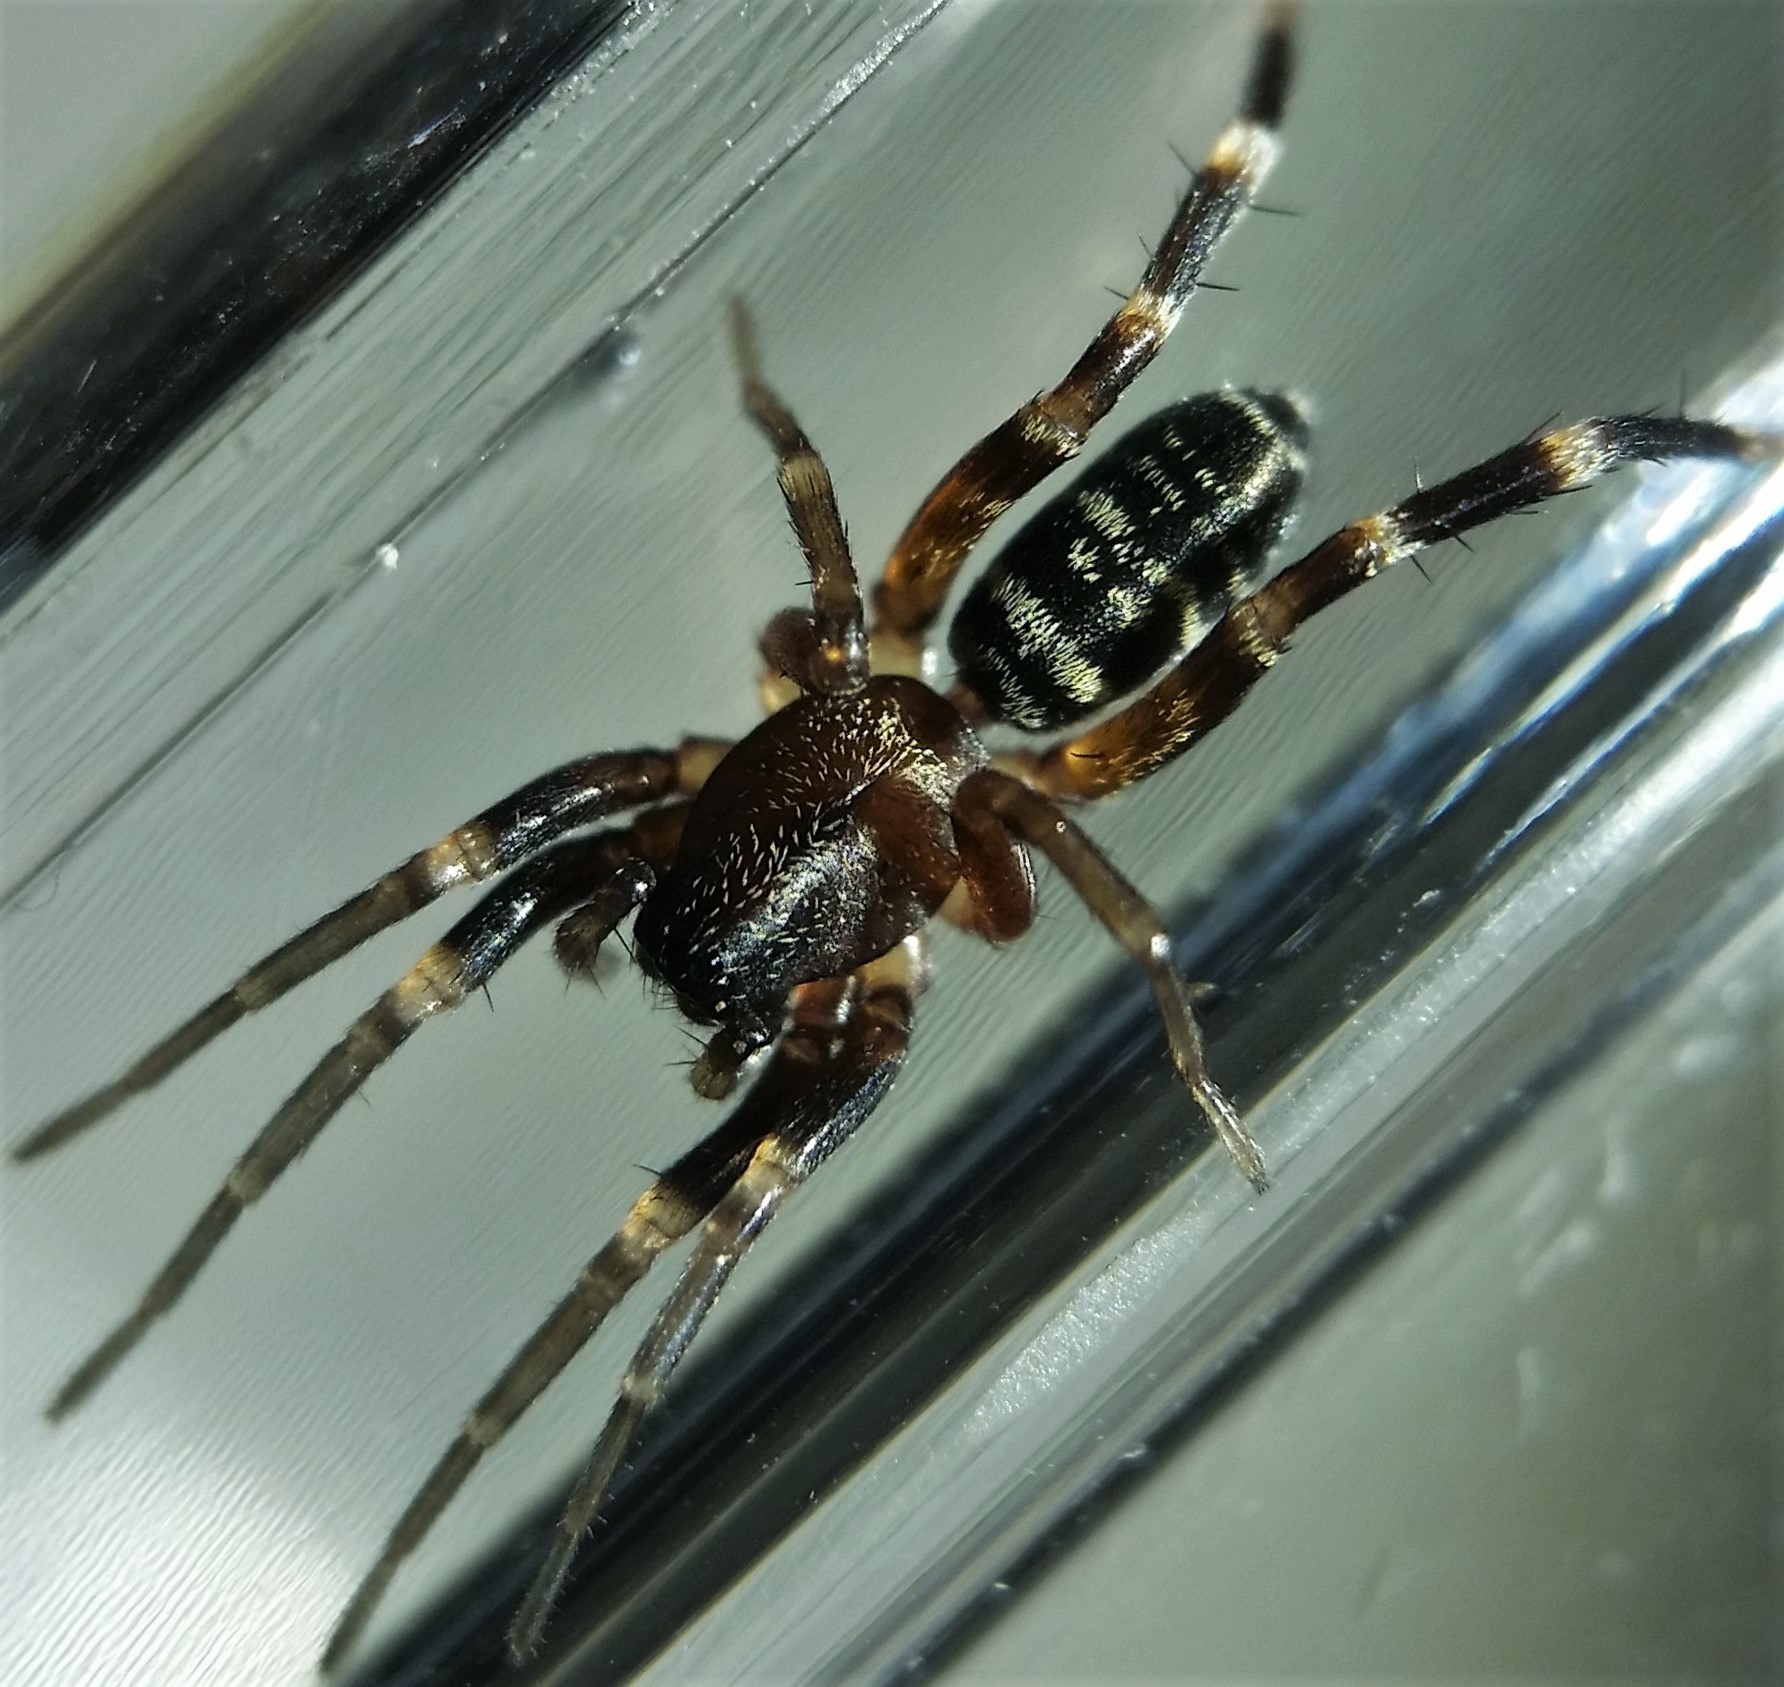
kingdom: Animalia
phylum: Arthropoda
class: Arachnida
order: Araneae
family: Corinnidae
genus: Castianeira
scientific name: Castianeira longipalpa
